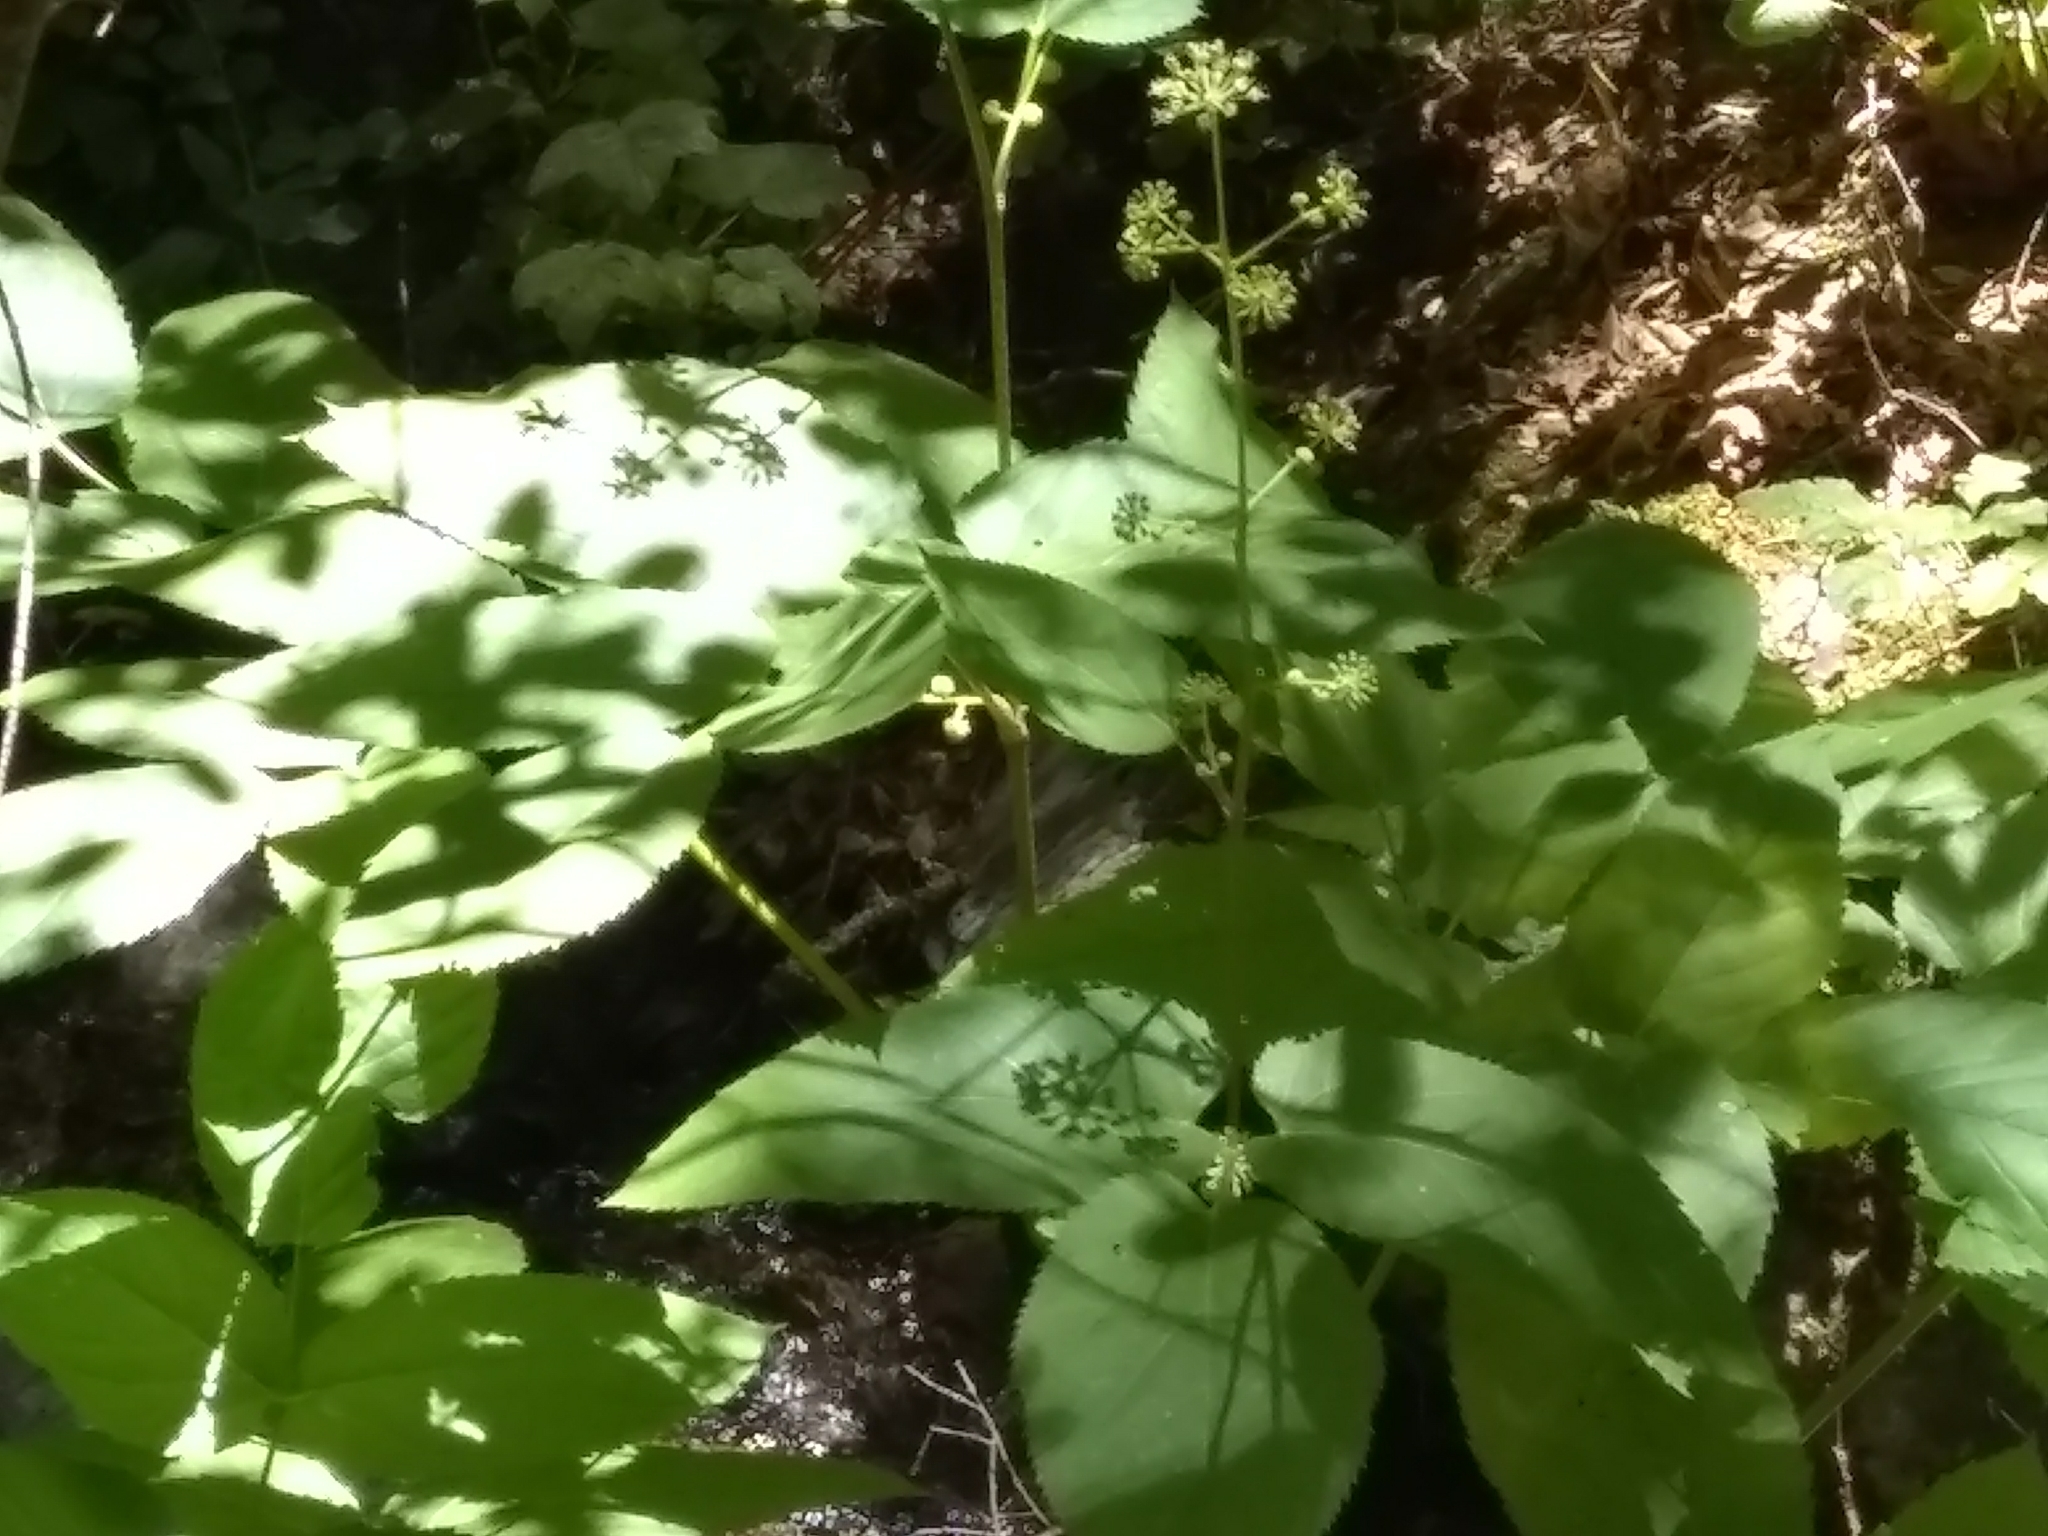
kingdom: Plantae
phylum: Tracheophyta
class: Magnoliopsida
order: Apiales
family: Araliaceae
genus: Aralia
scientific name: Aralia californica
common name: California-ginseng
